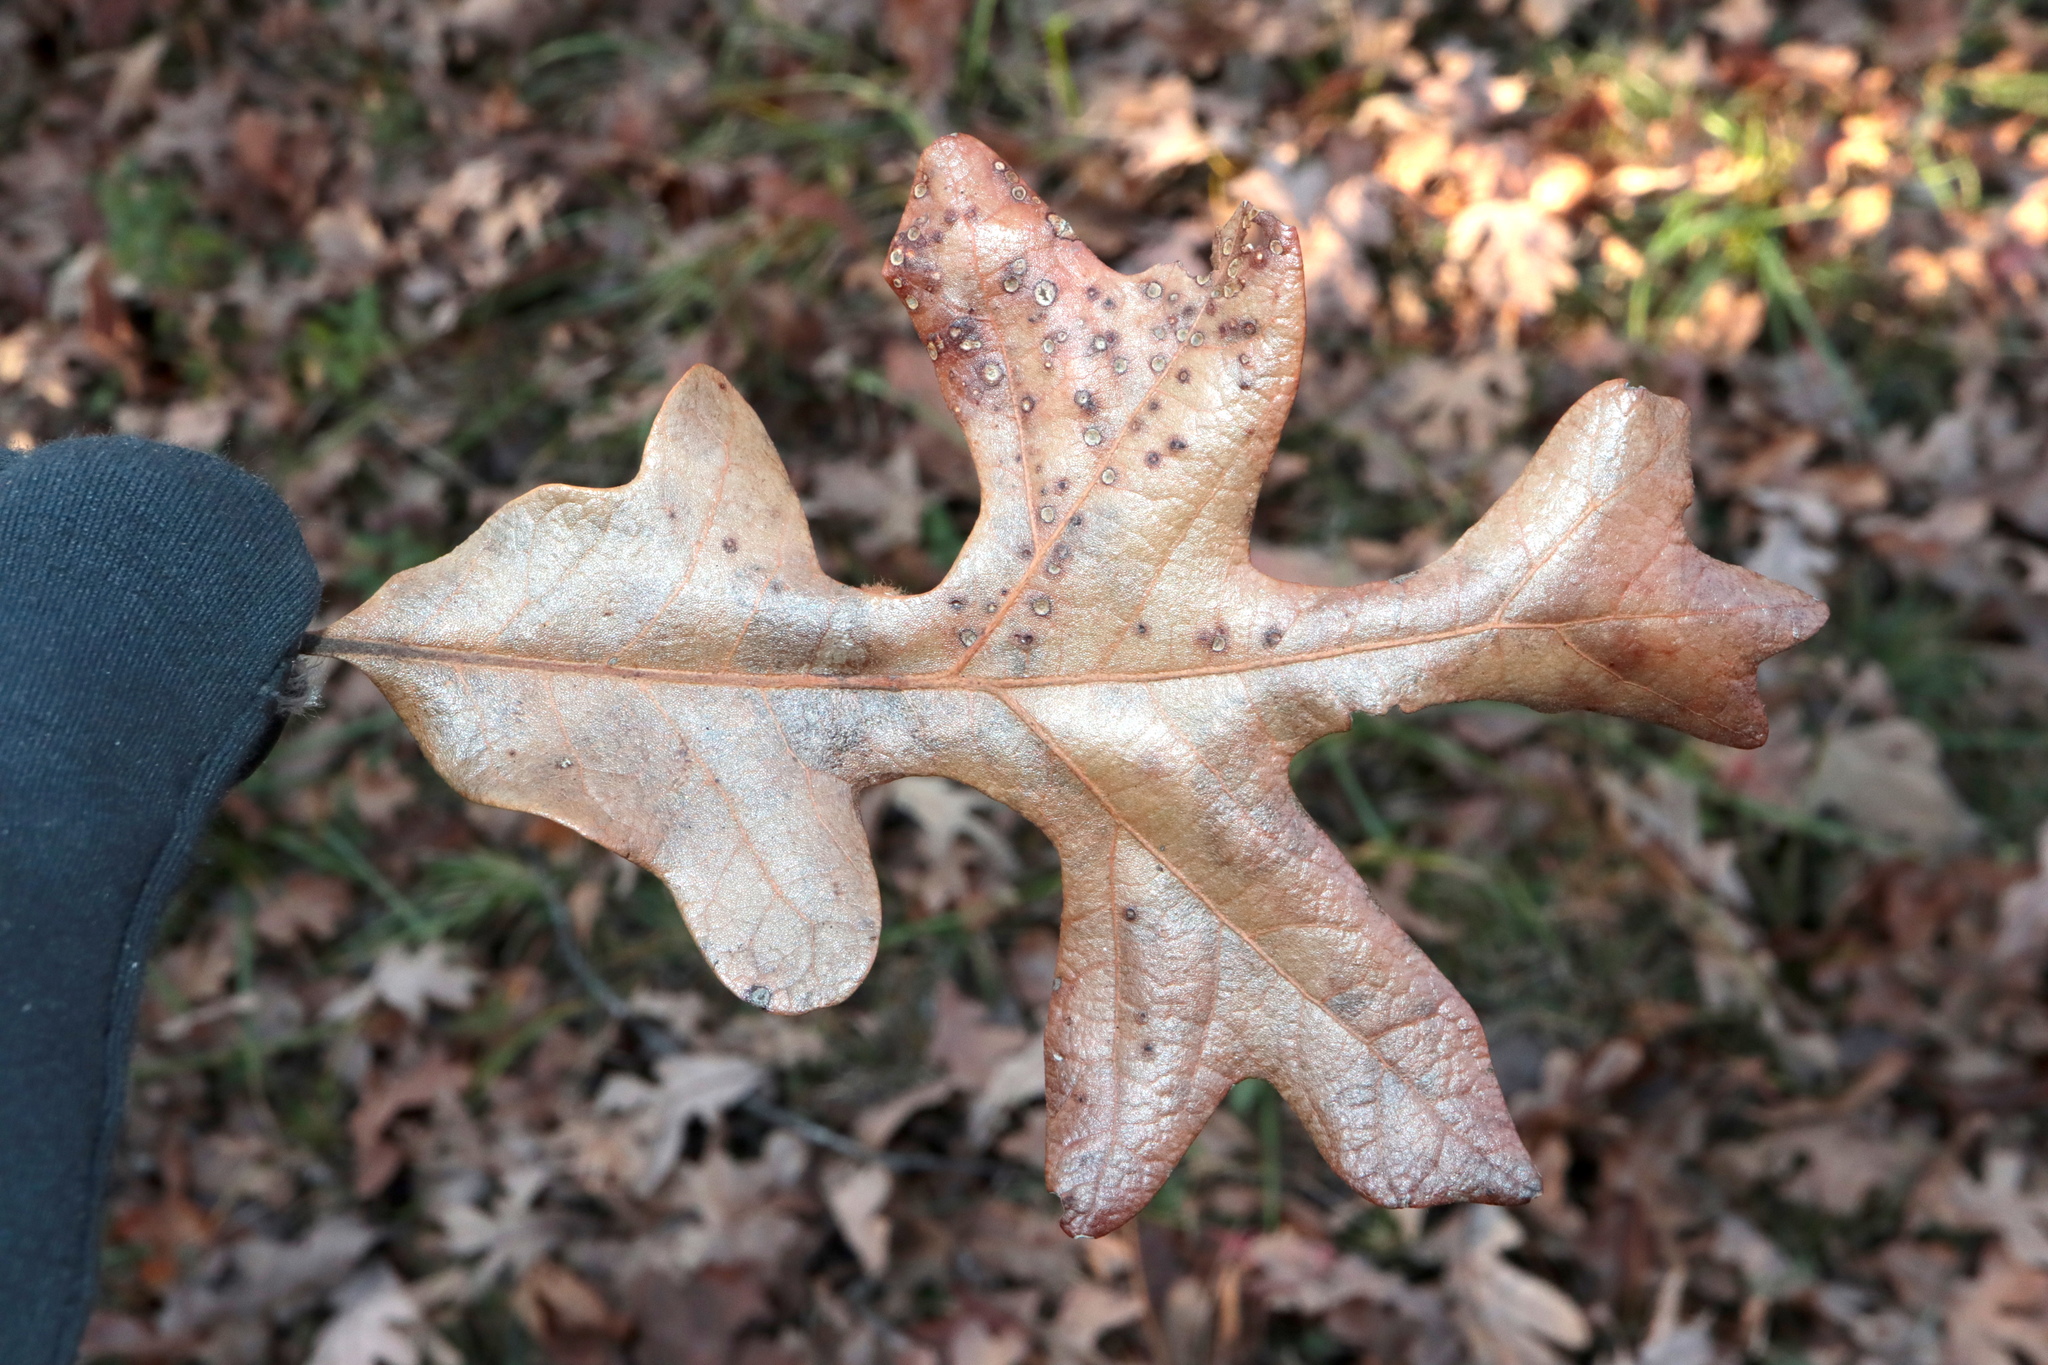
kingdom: Animalia
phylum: Arthropoda
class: Insecta
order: Hymenoptera
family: Cynipidae
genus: Andricus
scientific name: Andricus Druon pattoni
